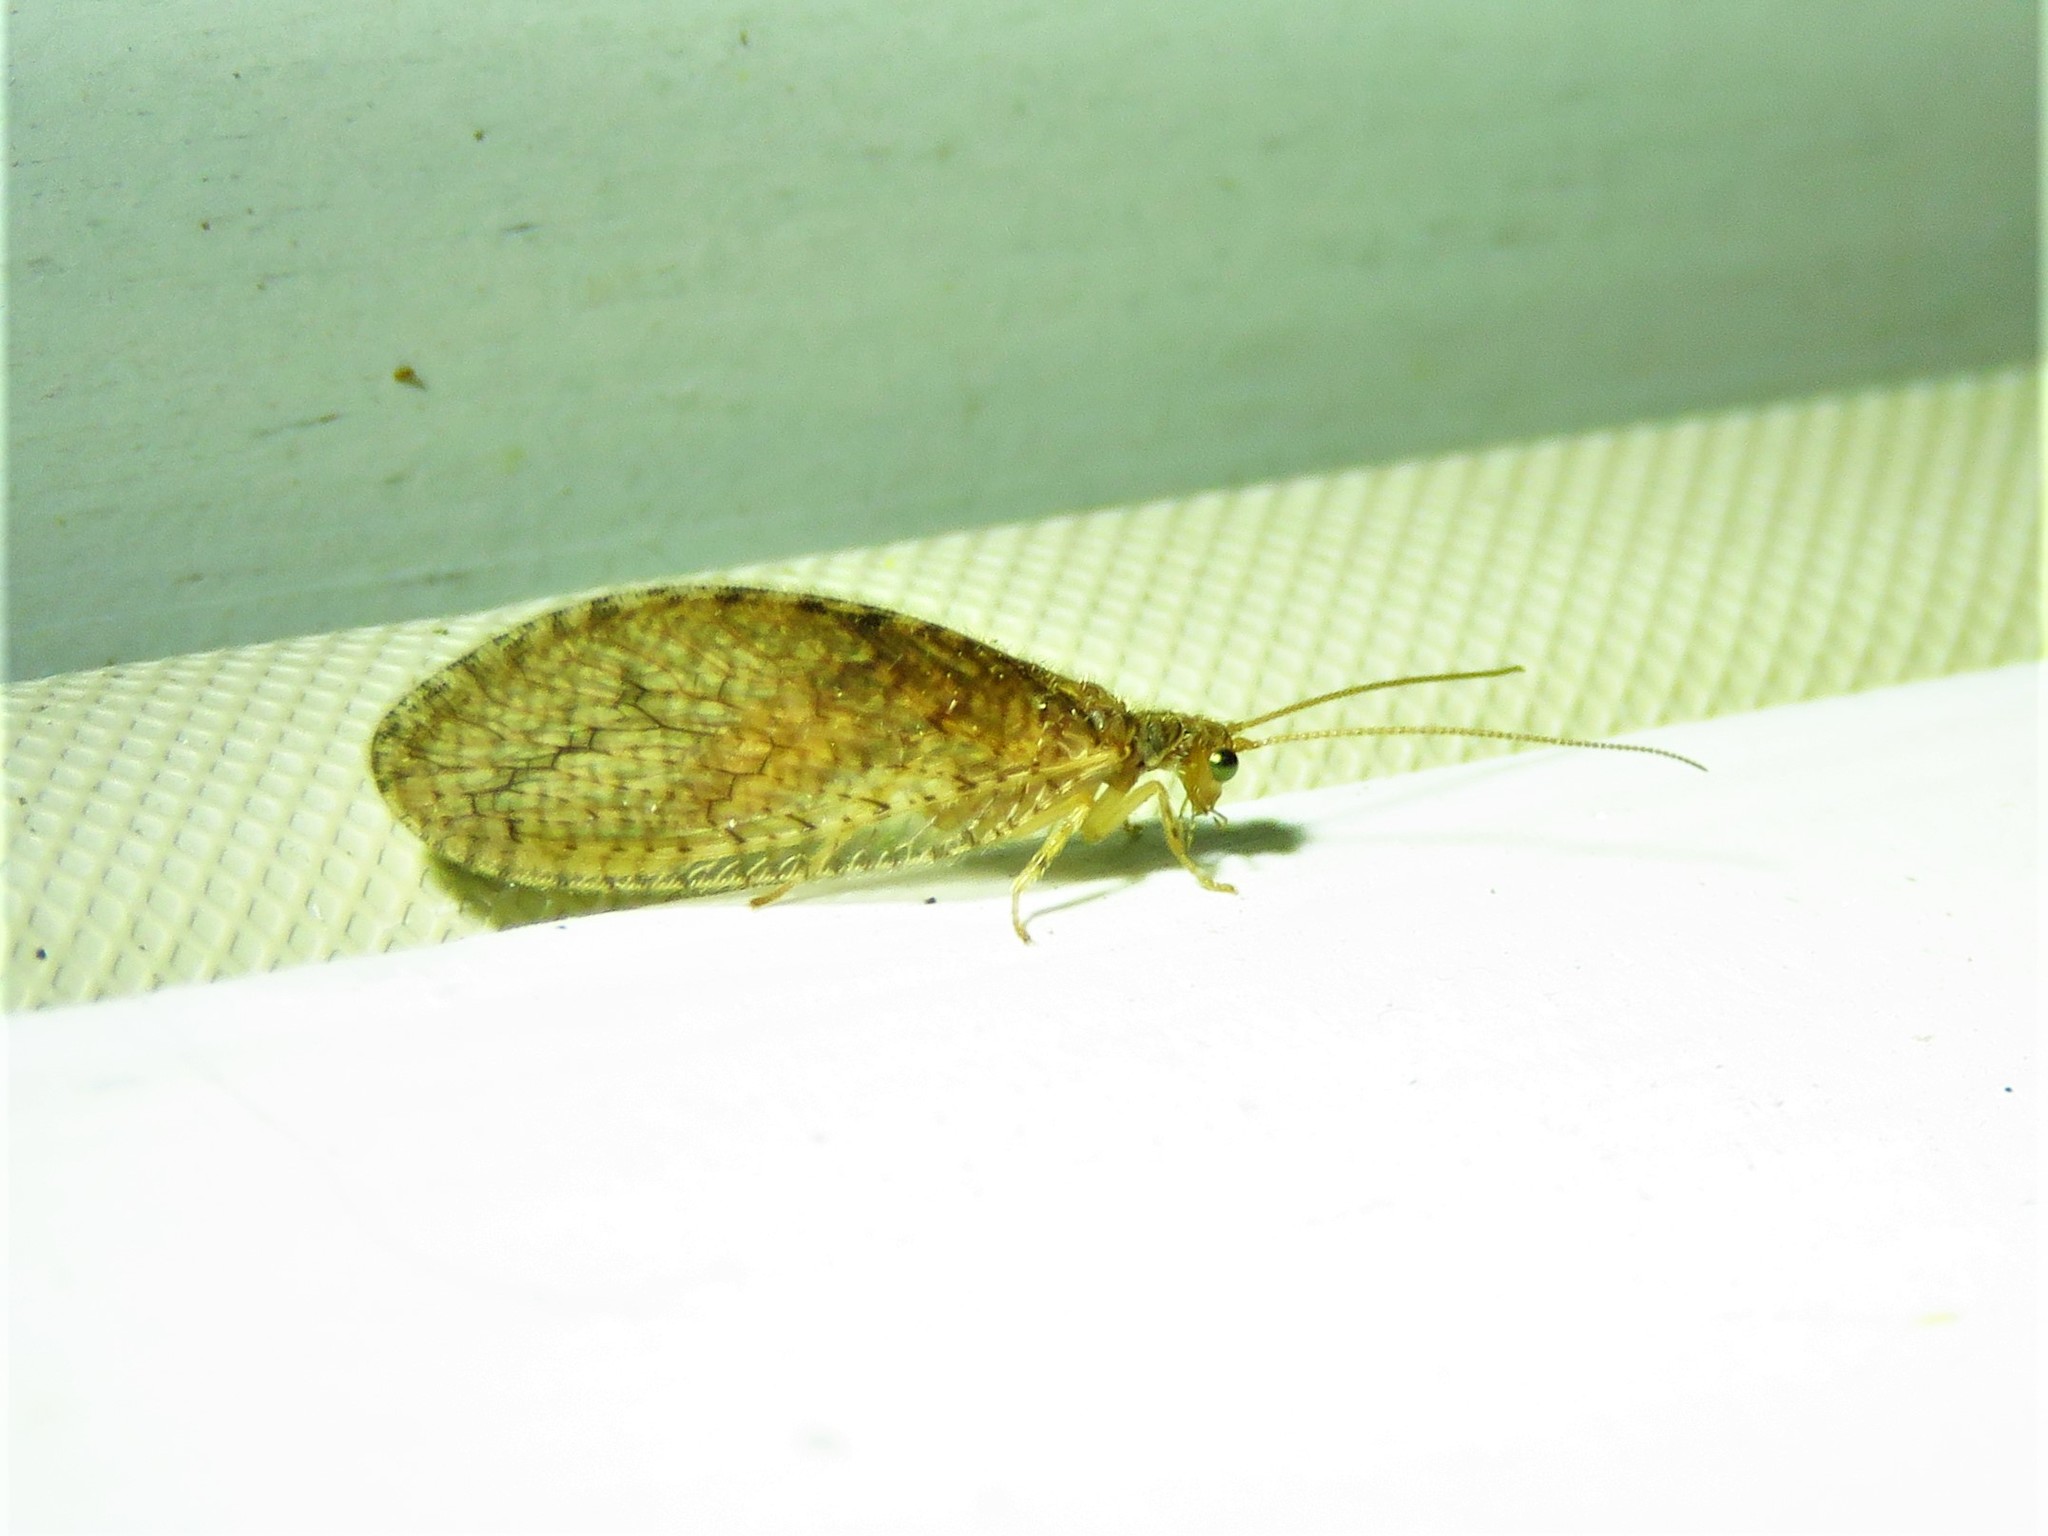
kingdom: Animalia
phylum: Arthropoda
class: Insecta
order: Neuroptera
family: Hemerobiidae
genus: Micromus
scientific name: Micromus posticus
